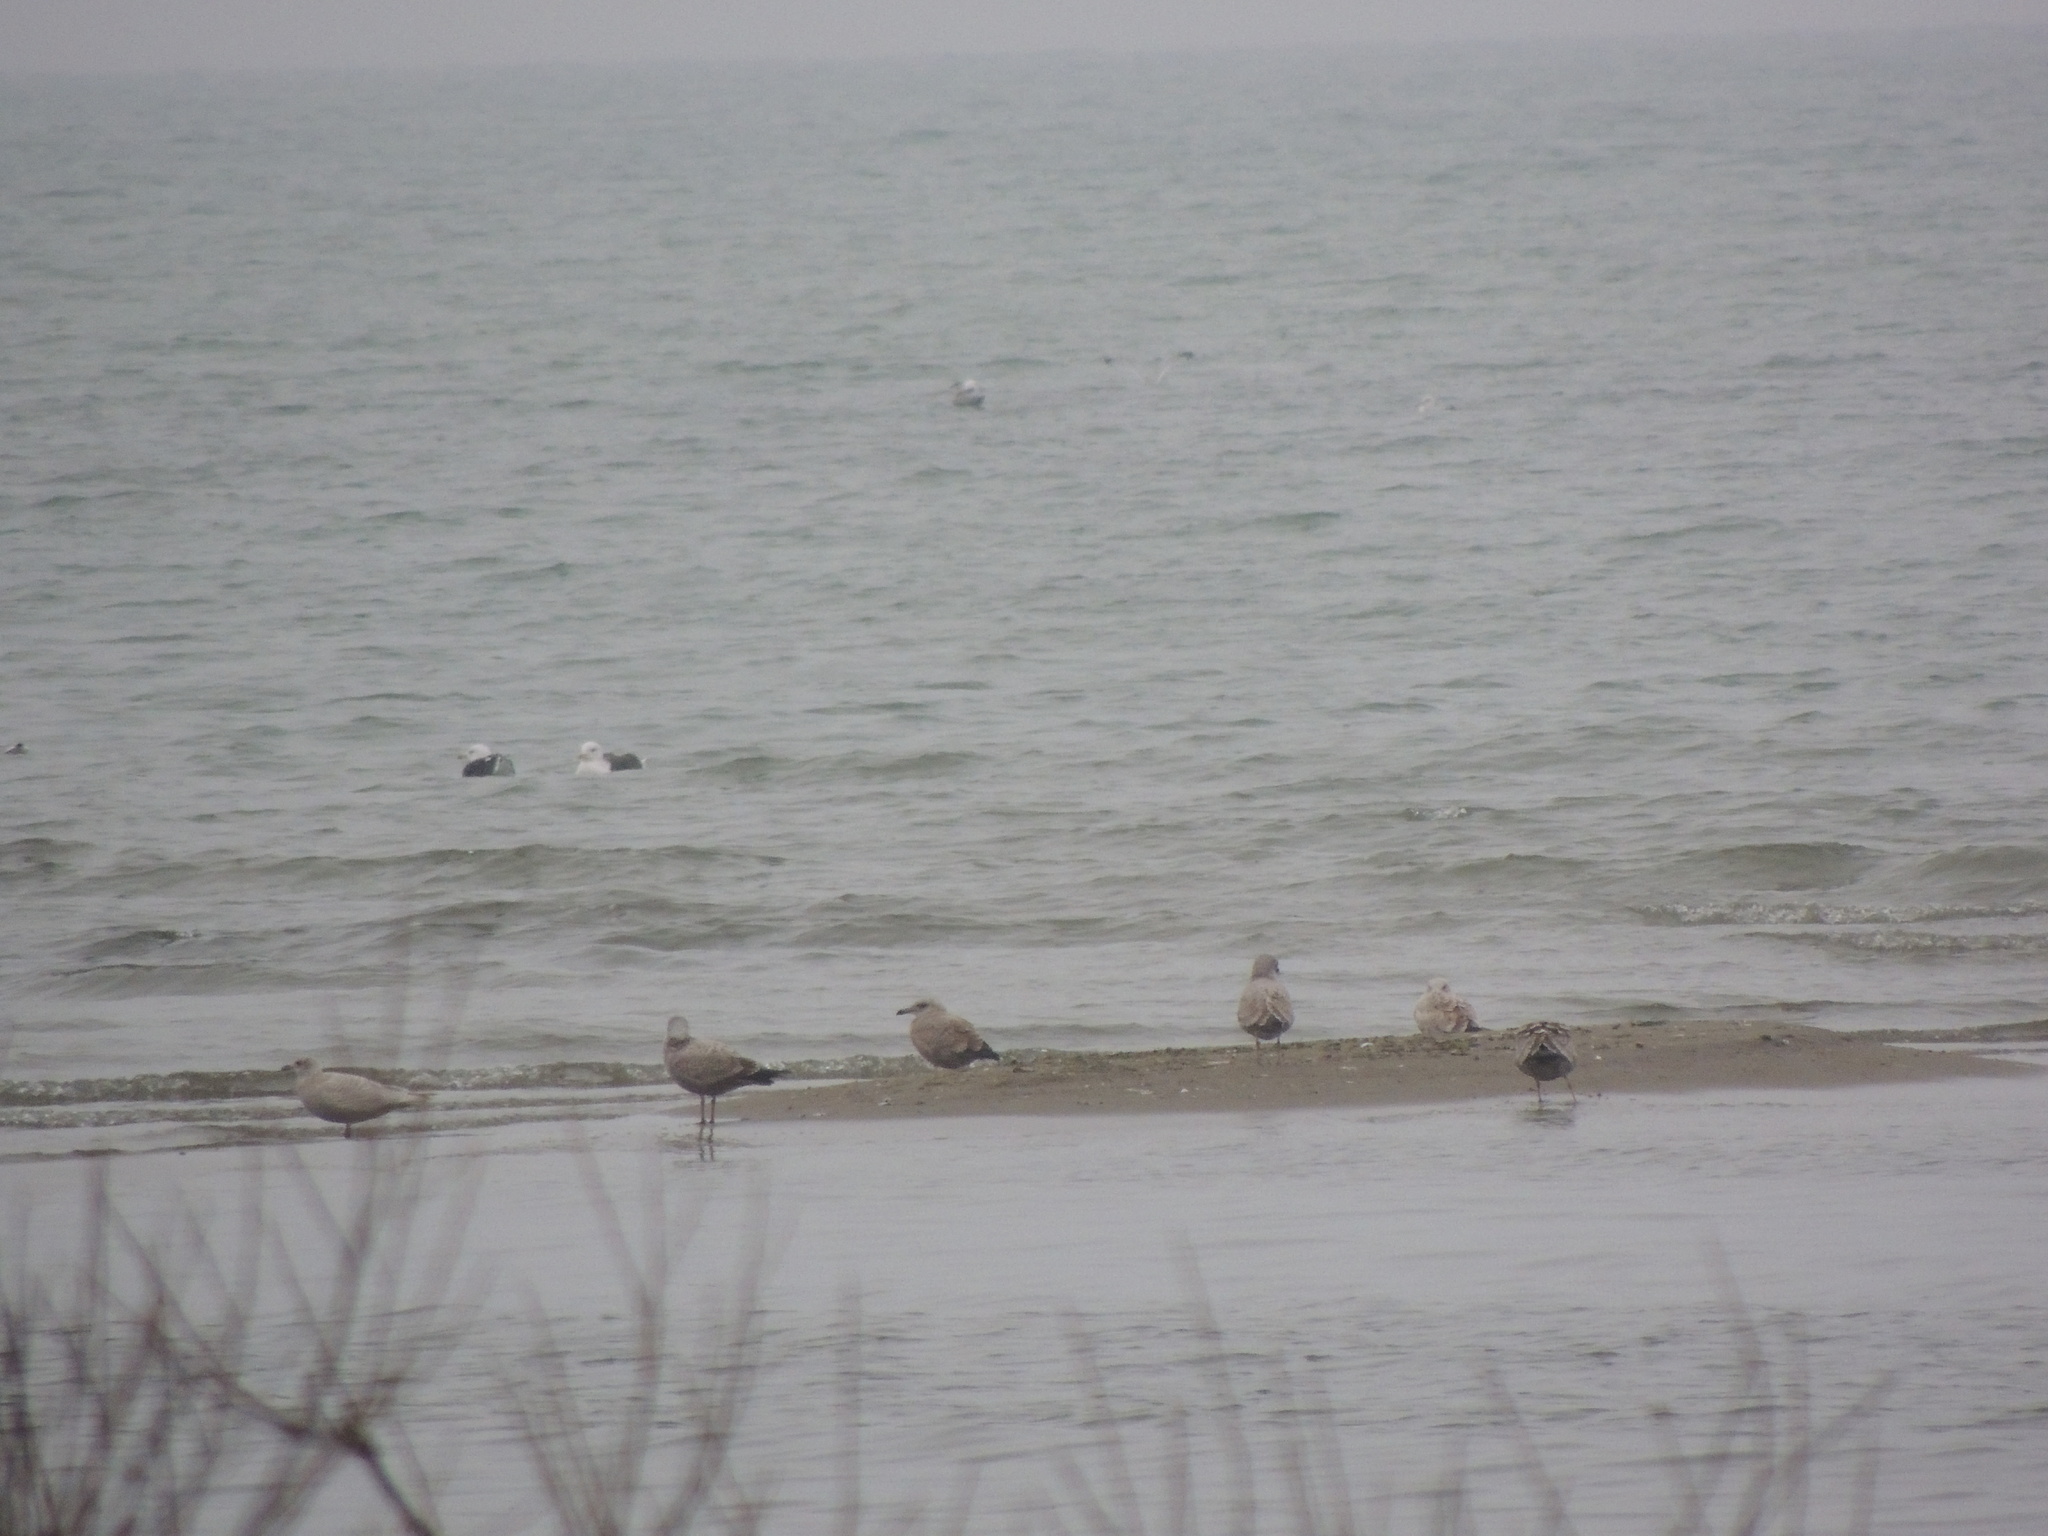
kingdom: Animalia
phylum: Chordata
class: Aves
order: Charadriiformes
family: Laridae
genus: Larus
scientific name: Larus argentatus
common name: Herring gull
